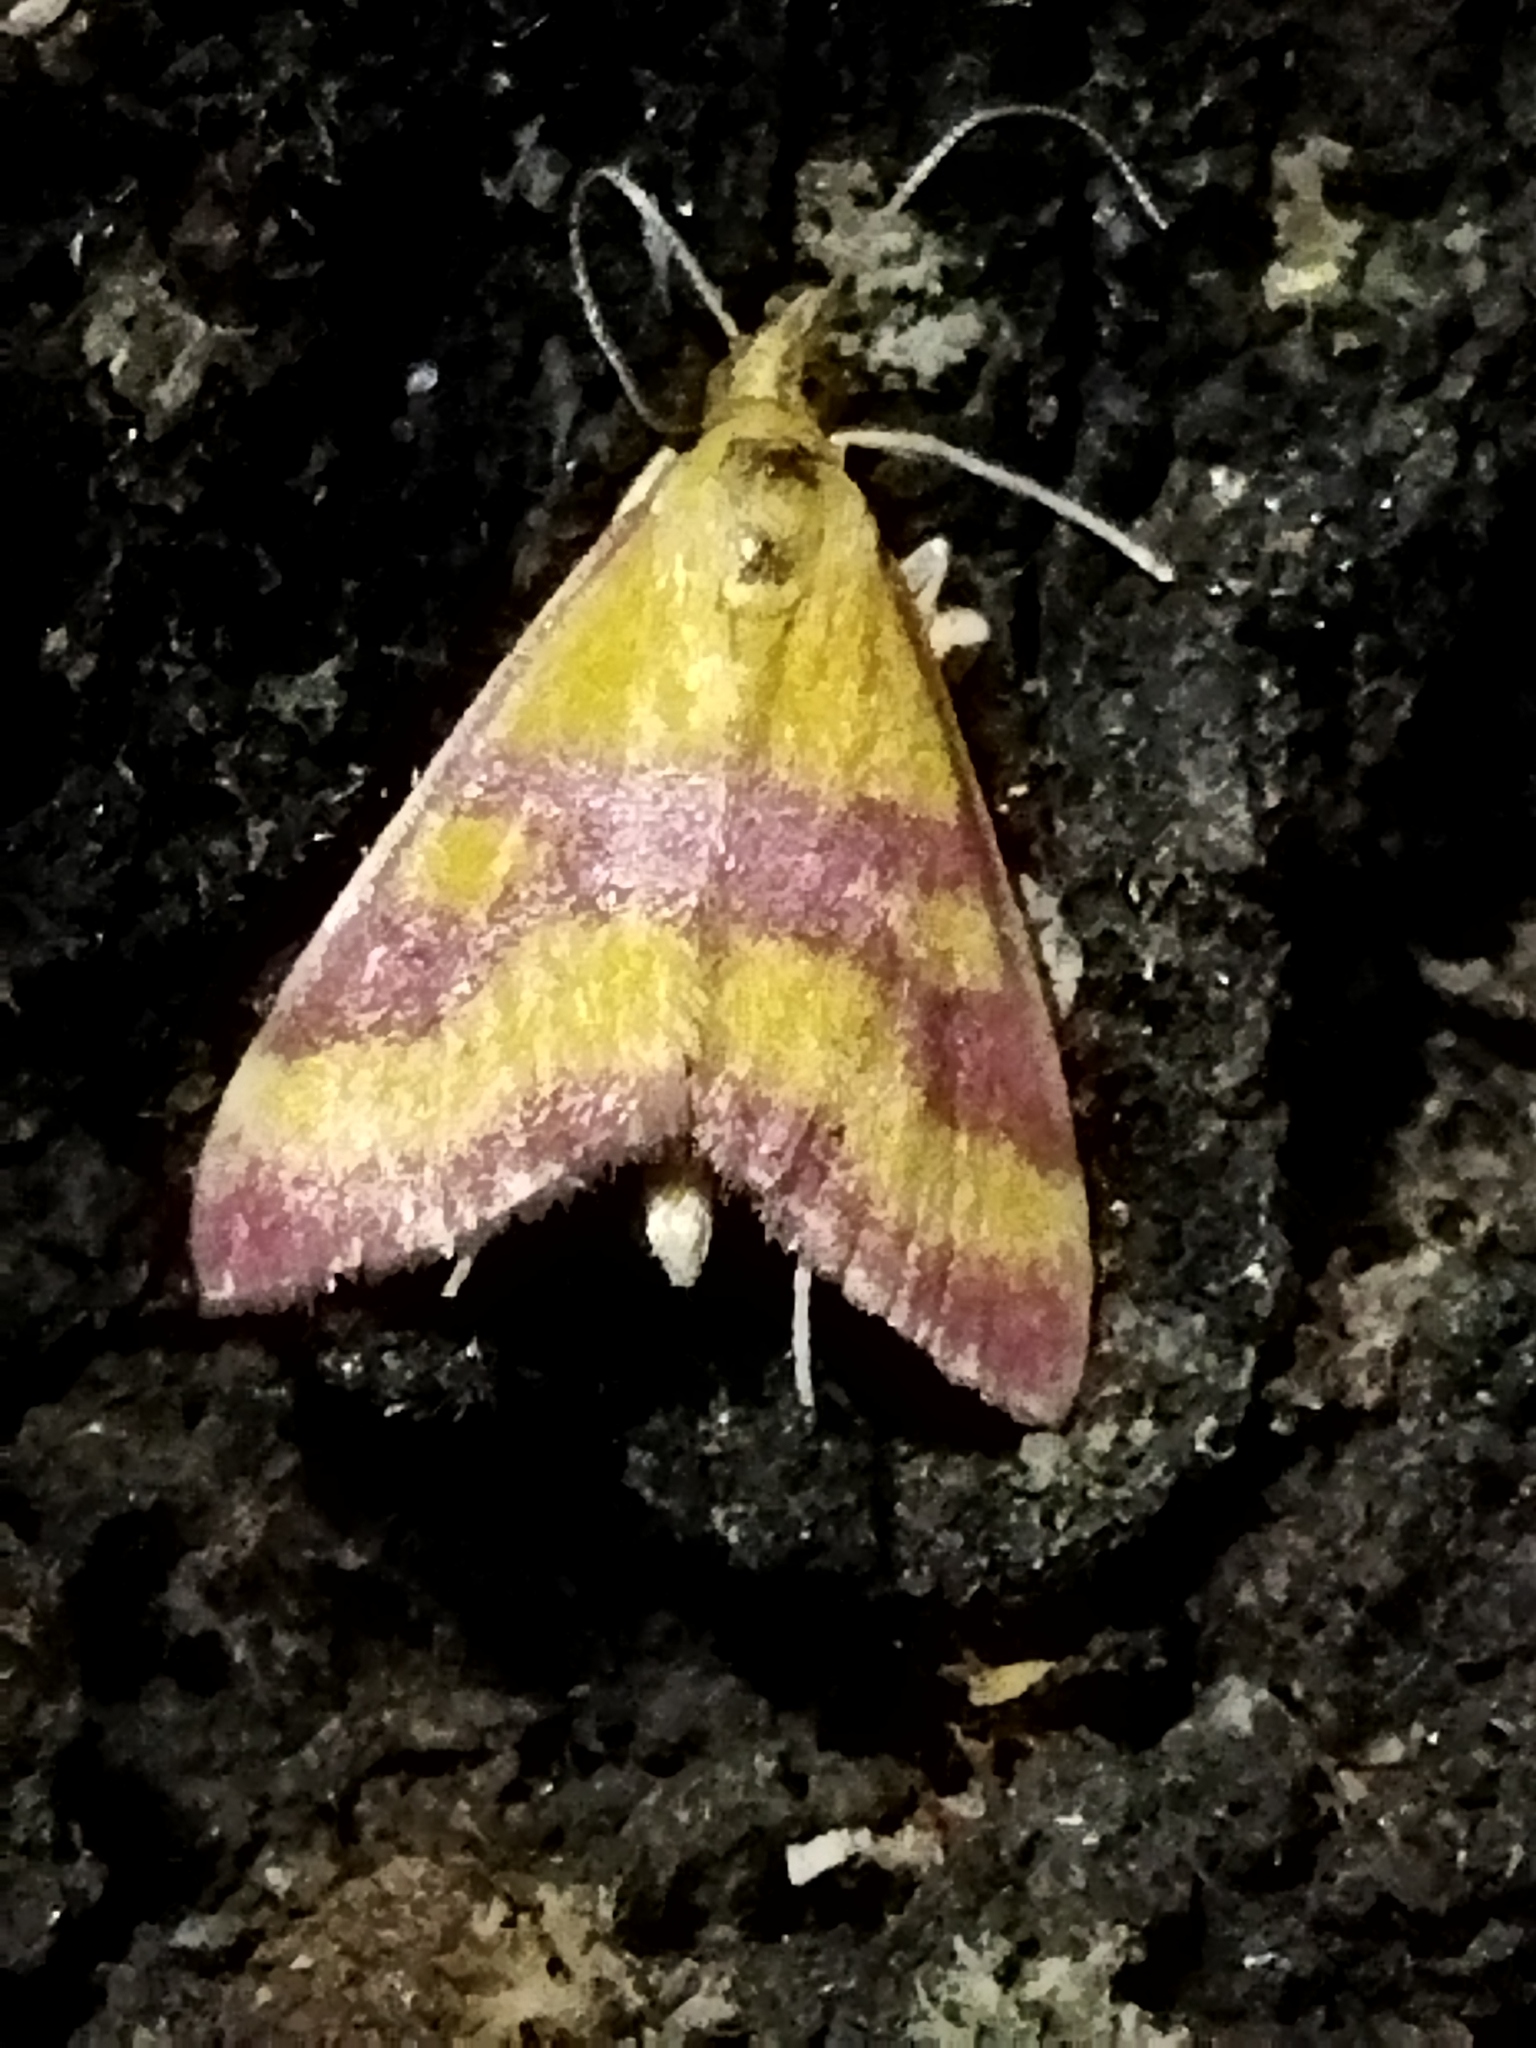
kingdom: Animalia
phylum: Arthropoda
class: Insecta
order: Lepidoptera
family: Crambidae
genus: Pyrausta
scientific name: Pyrausta sanguinalis
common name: Scarce crimson and gold
